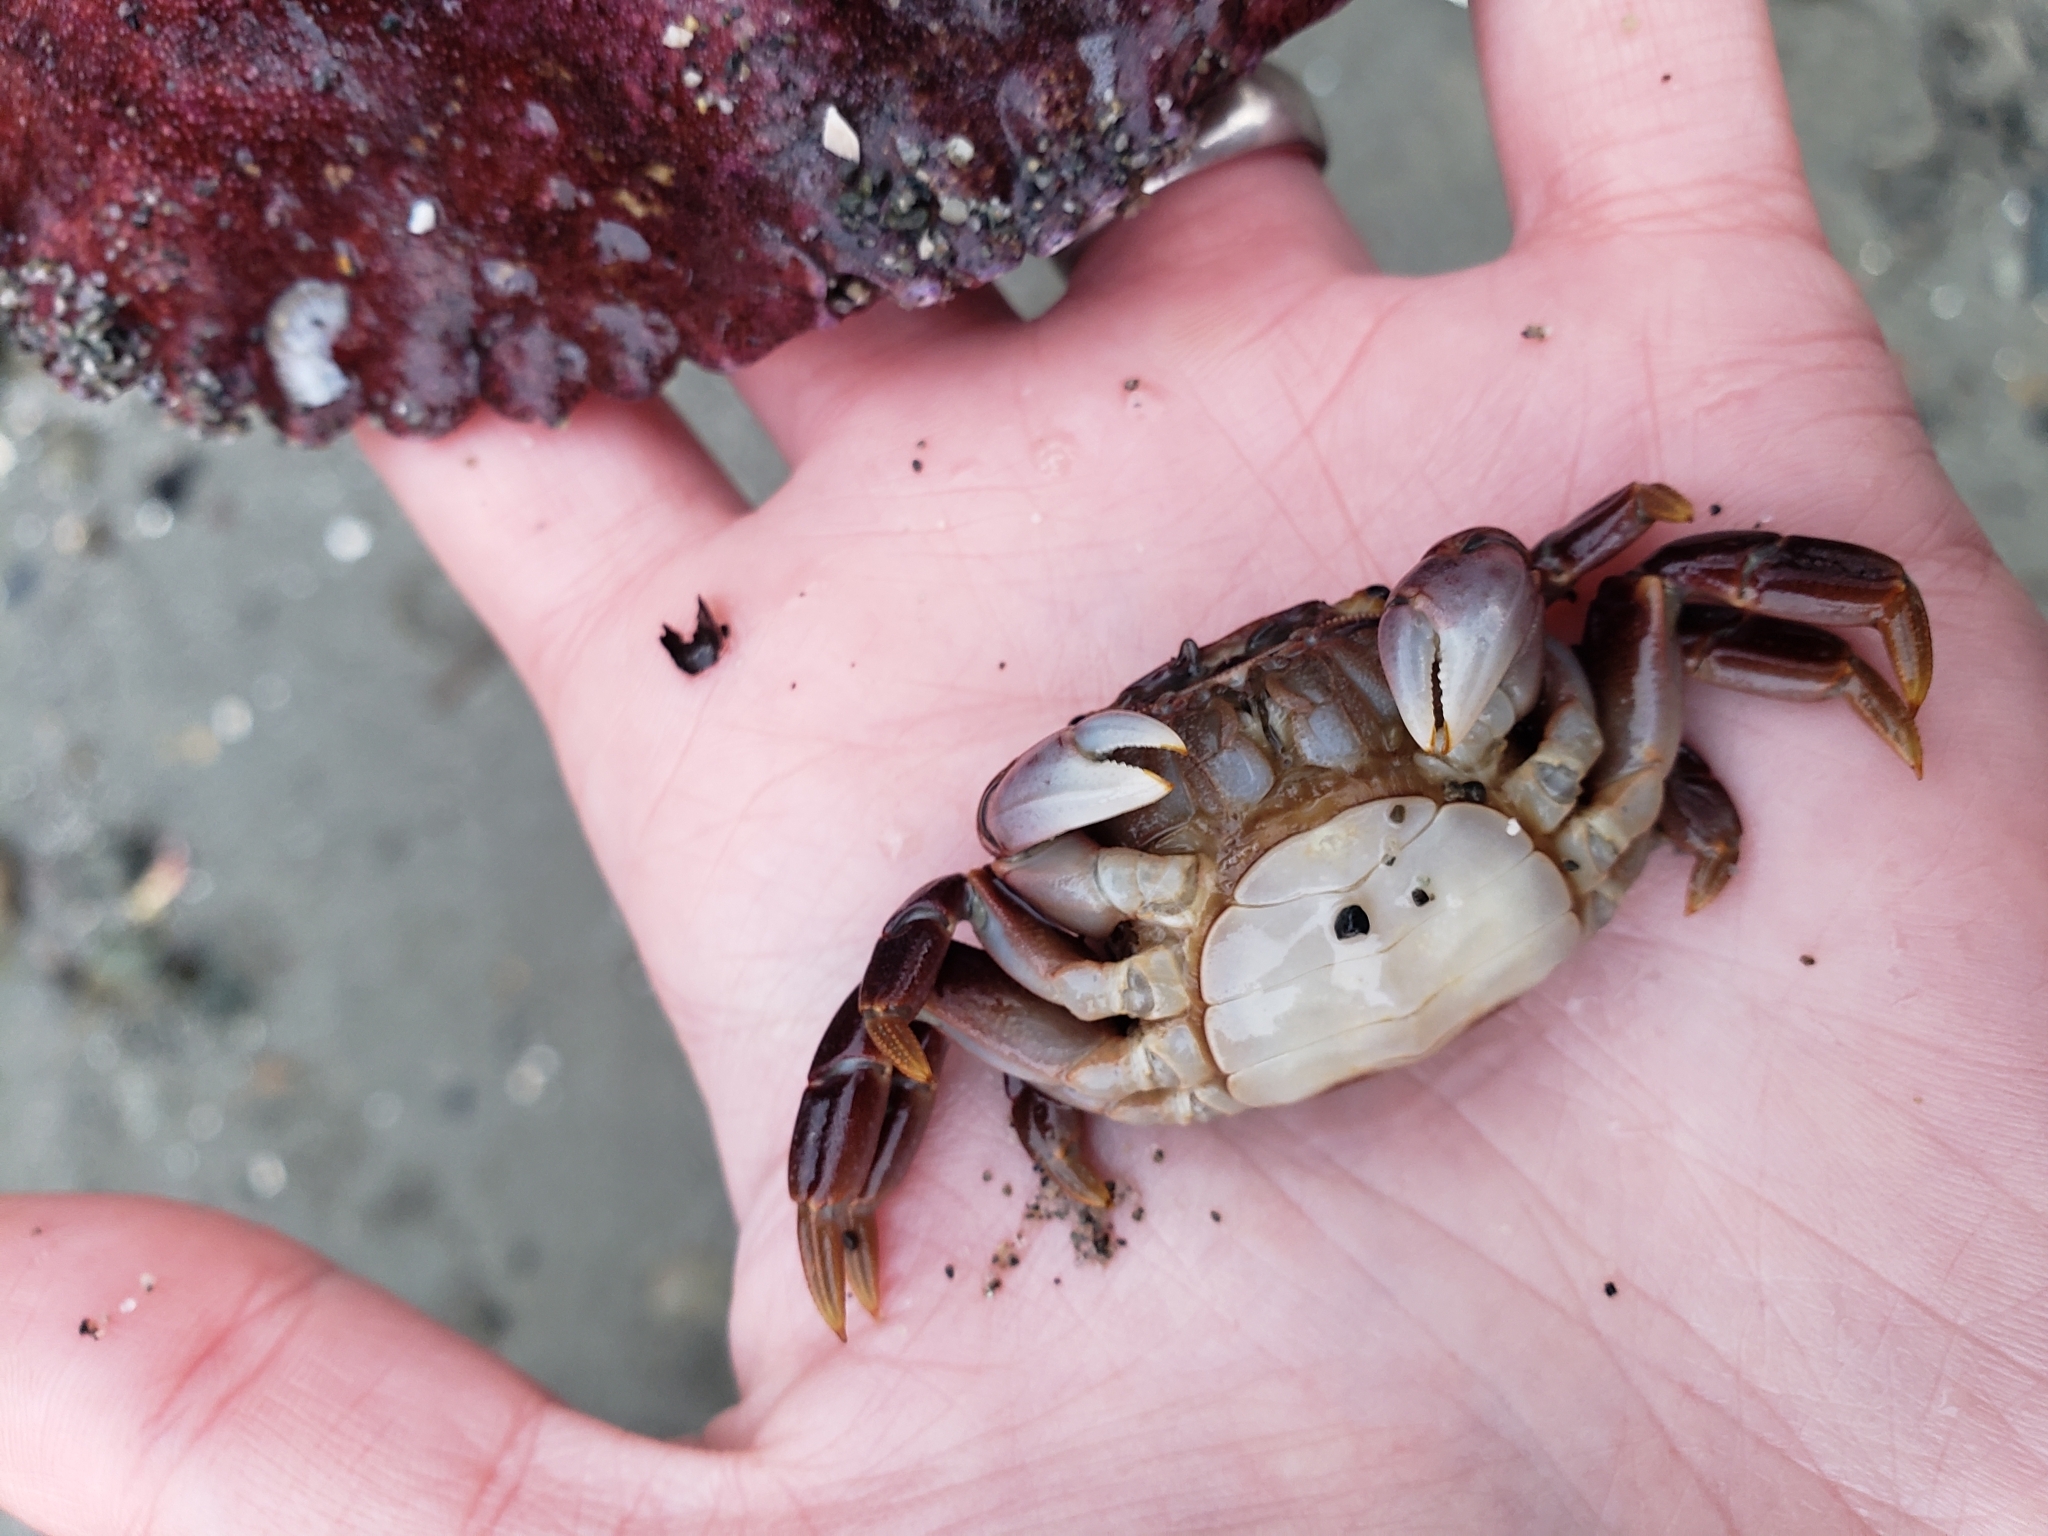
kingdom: Animalia
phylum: Arthropoda
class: Malacostraca
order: Decapoda
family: Varunidae
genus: Hemigrapsus
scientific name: Hemigrapsus nudus
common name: Purple shore crab
